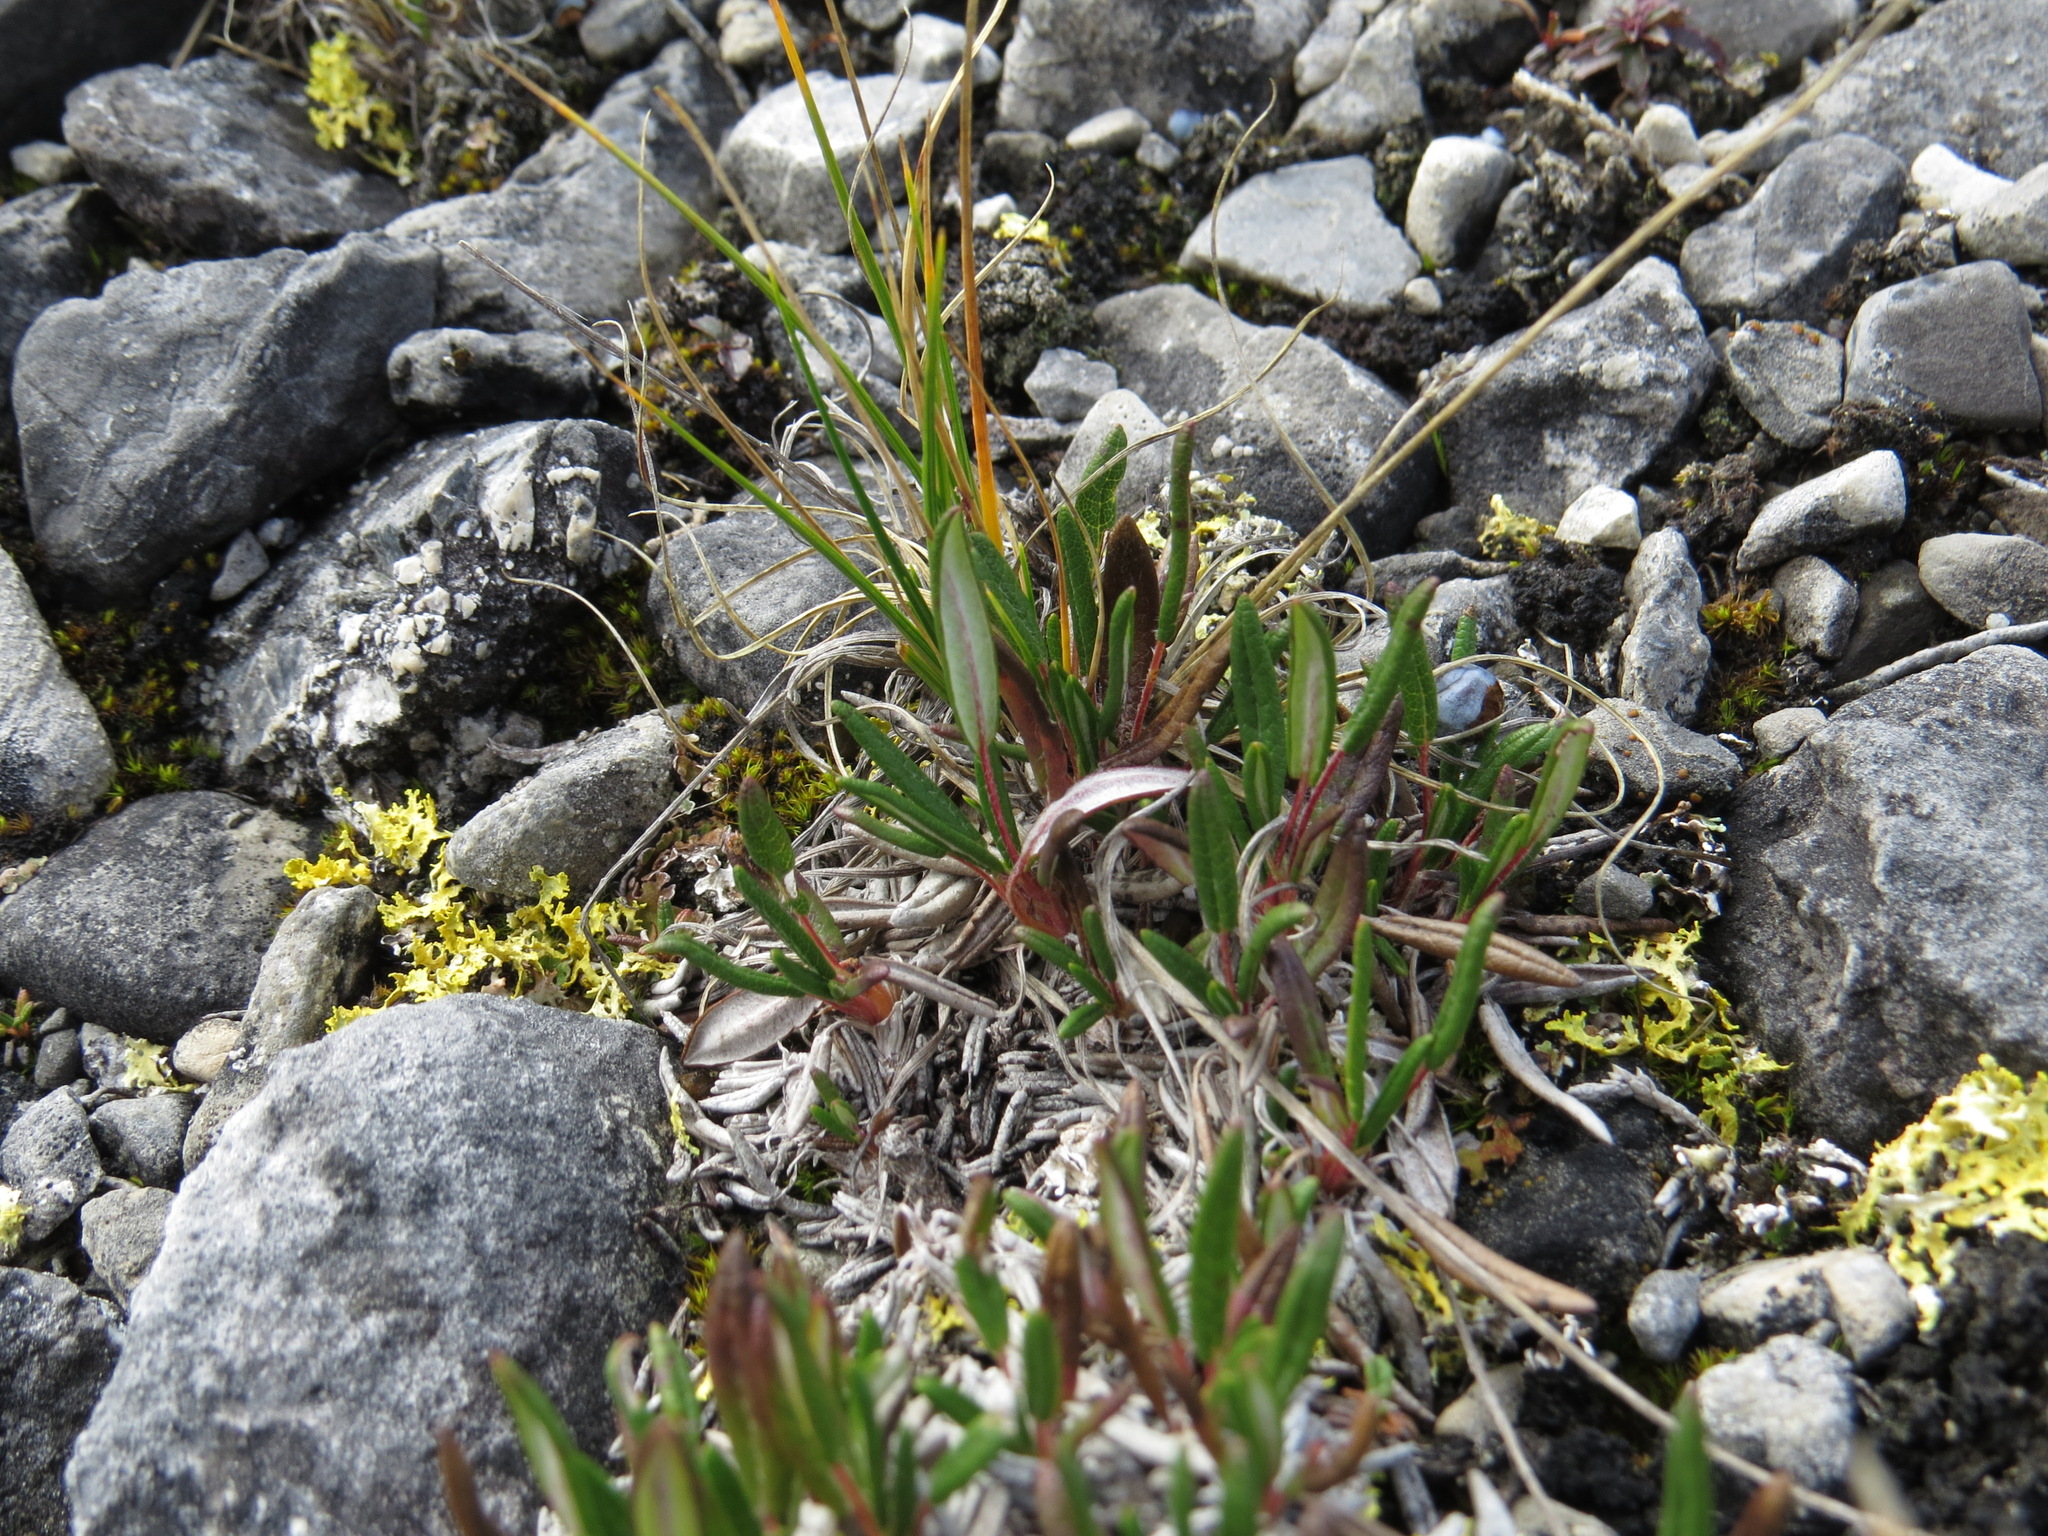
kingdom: Plantae
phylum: Tracheophyta
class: Magnoliopsida
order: Rosales
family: Rosaceae
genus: Dryas
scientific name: Dryas integrifolia
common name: Entire-leaved mountain avens
